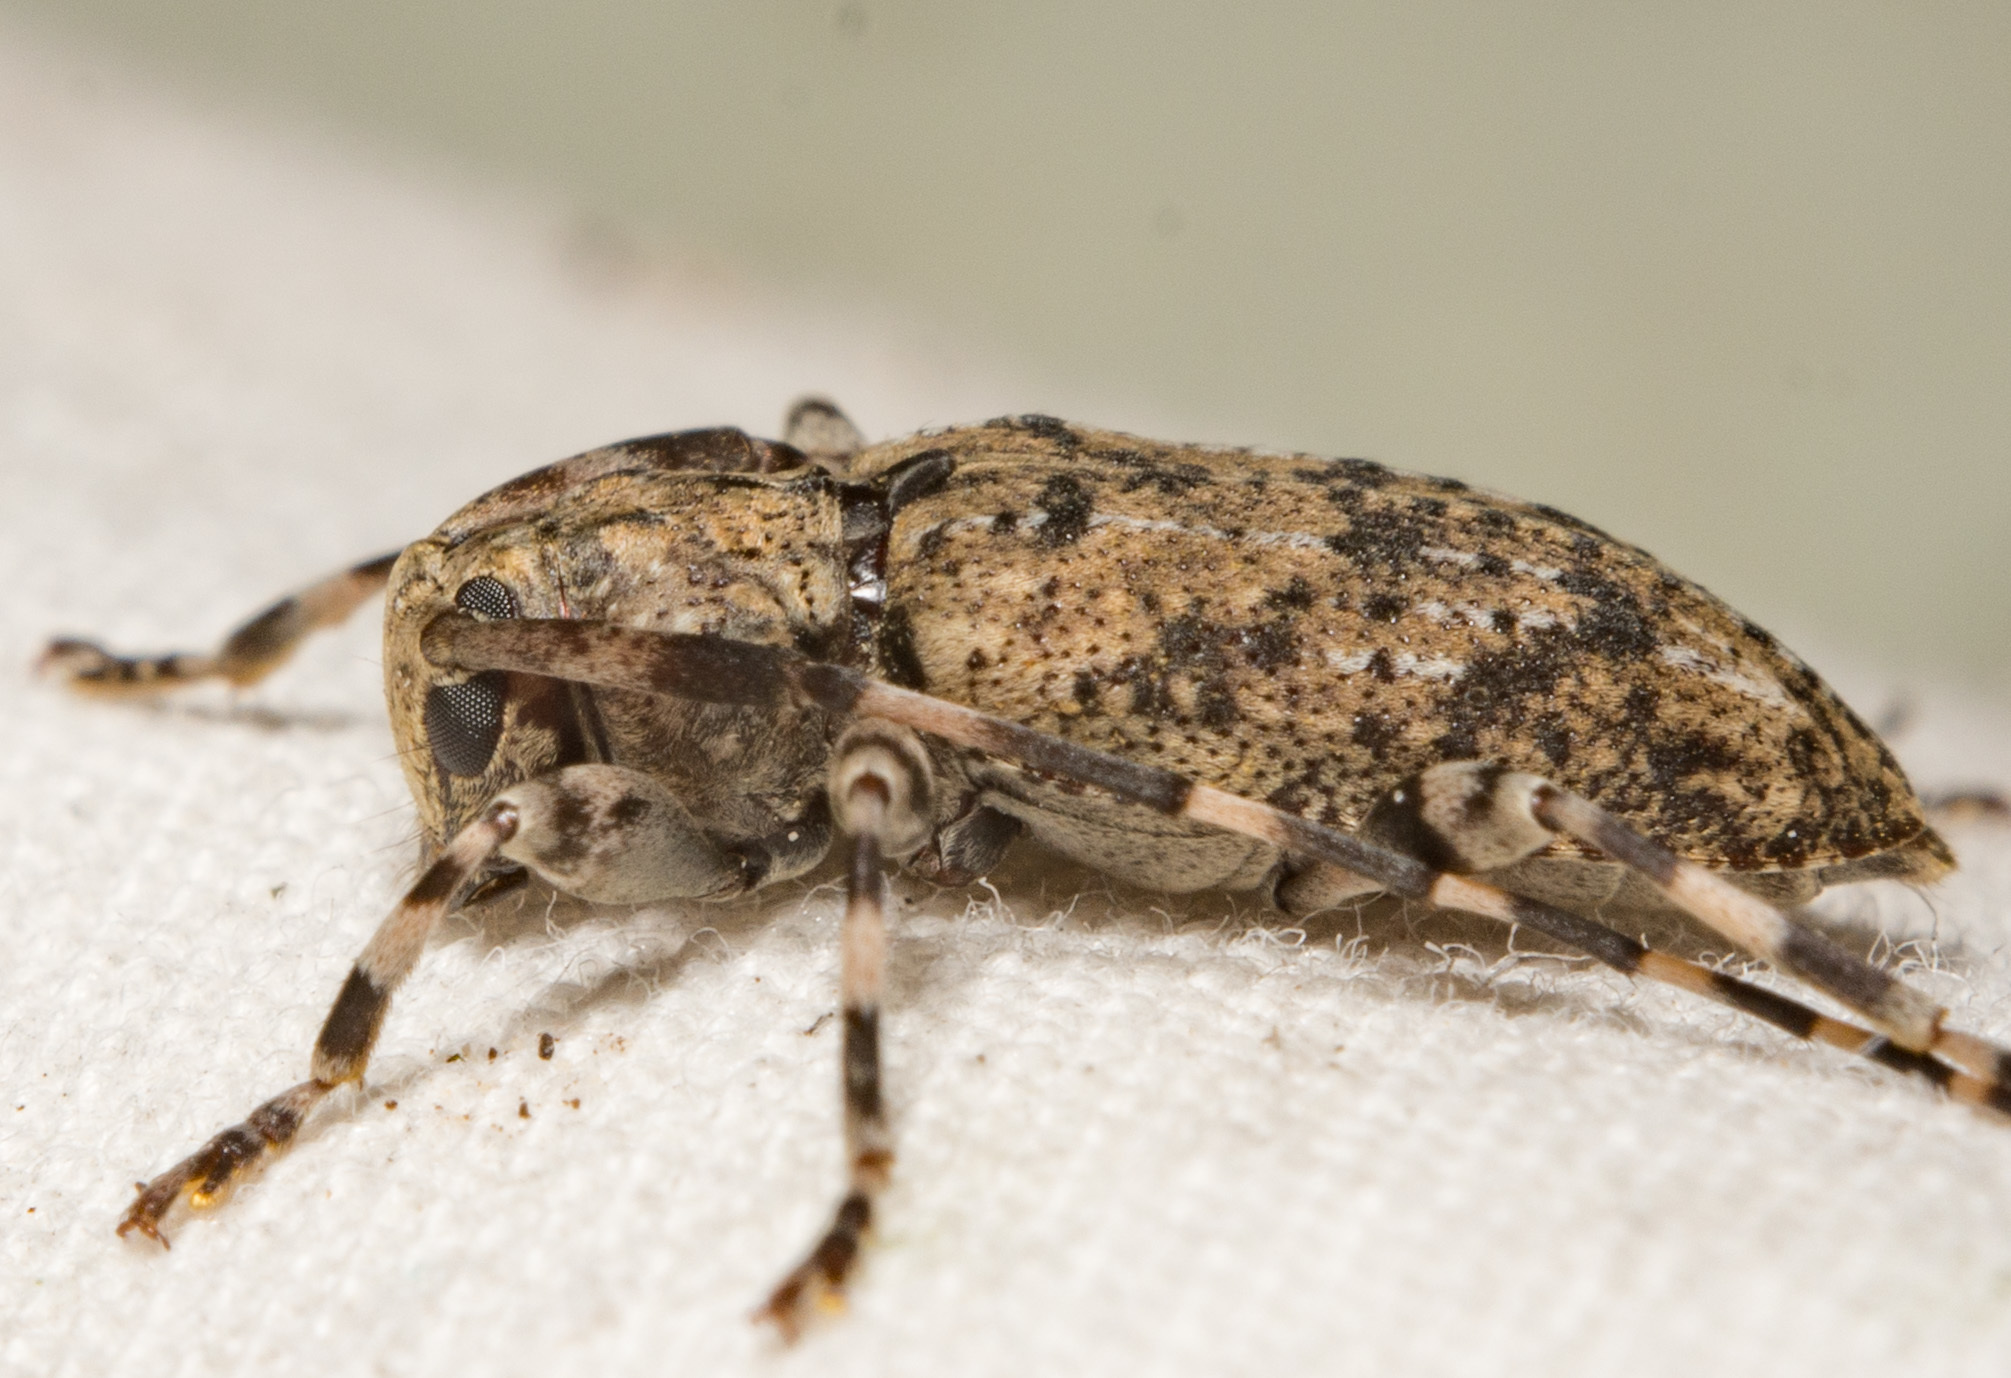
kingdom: Animalia
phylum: Arthropoda
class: Insecta
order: Coleoptera
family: Cerambycidae
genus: Astyleiopus
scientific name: Astyleiopus variegatus
